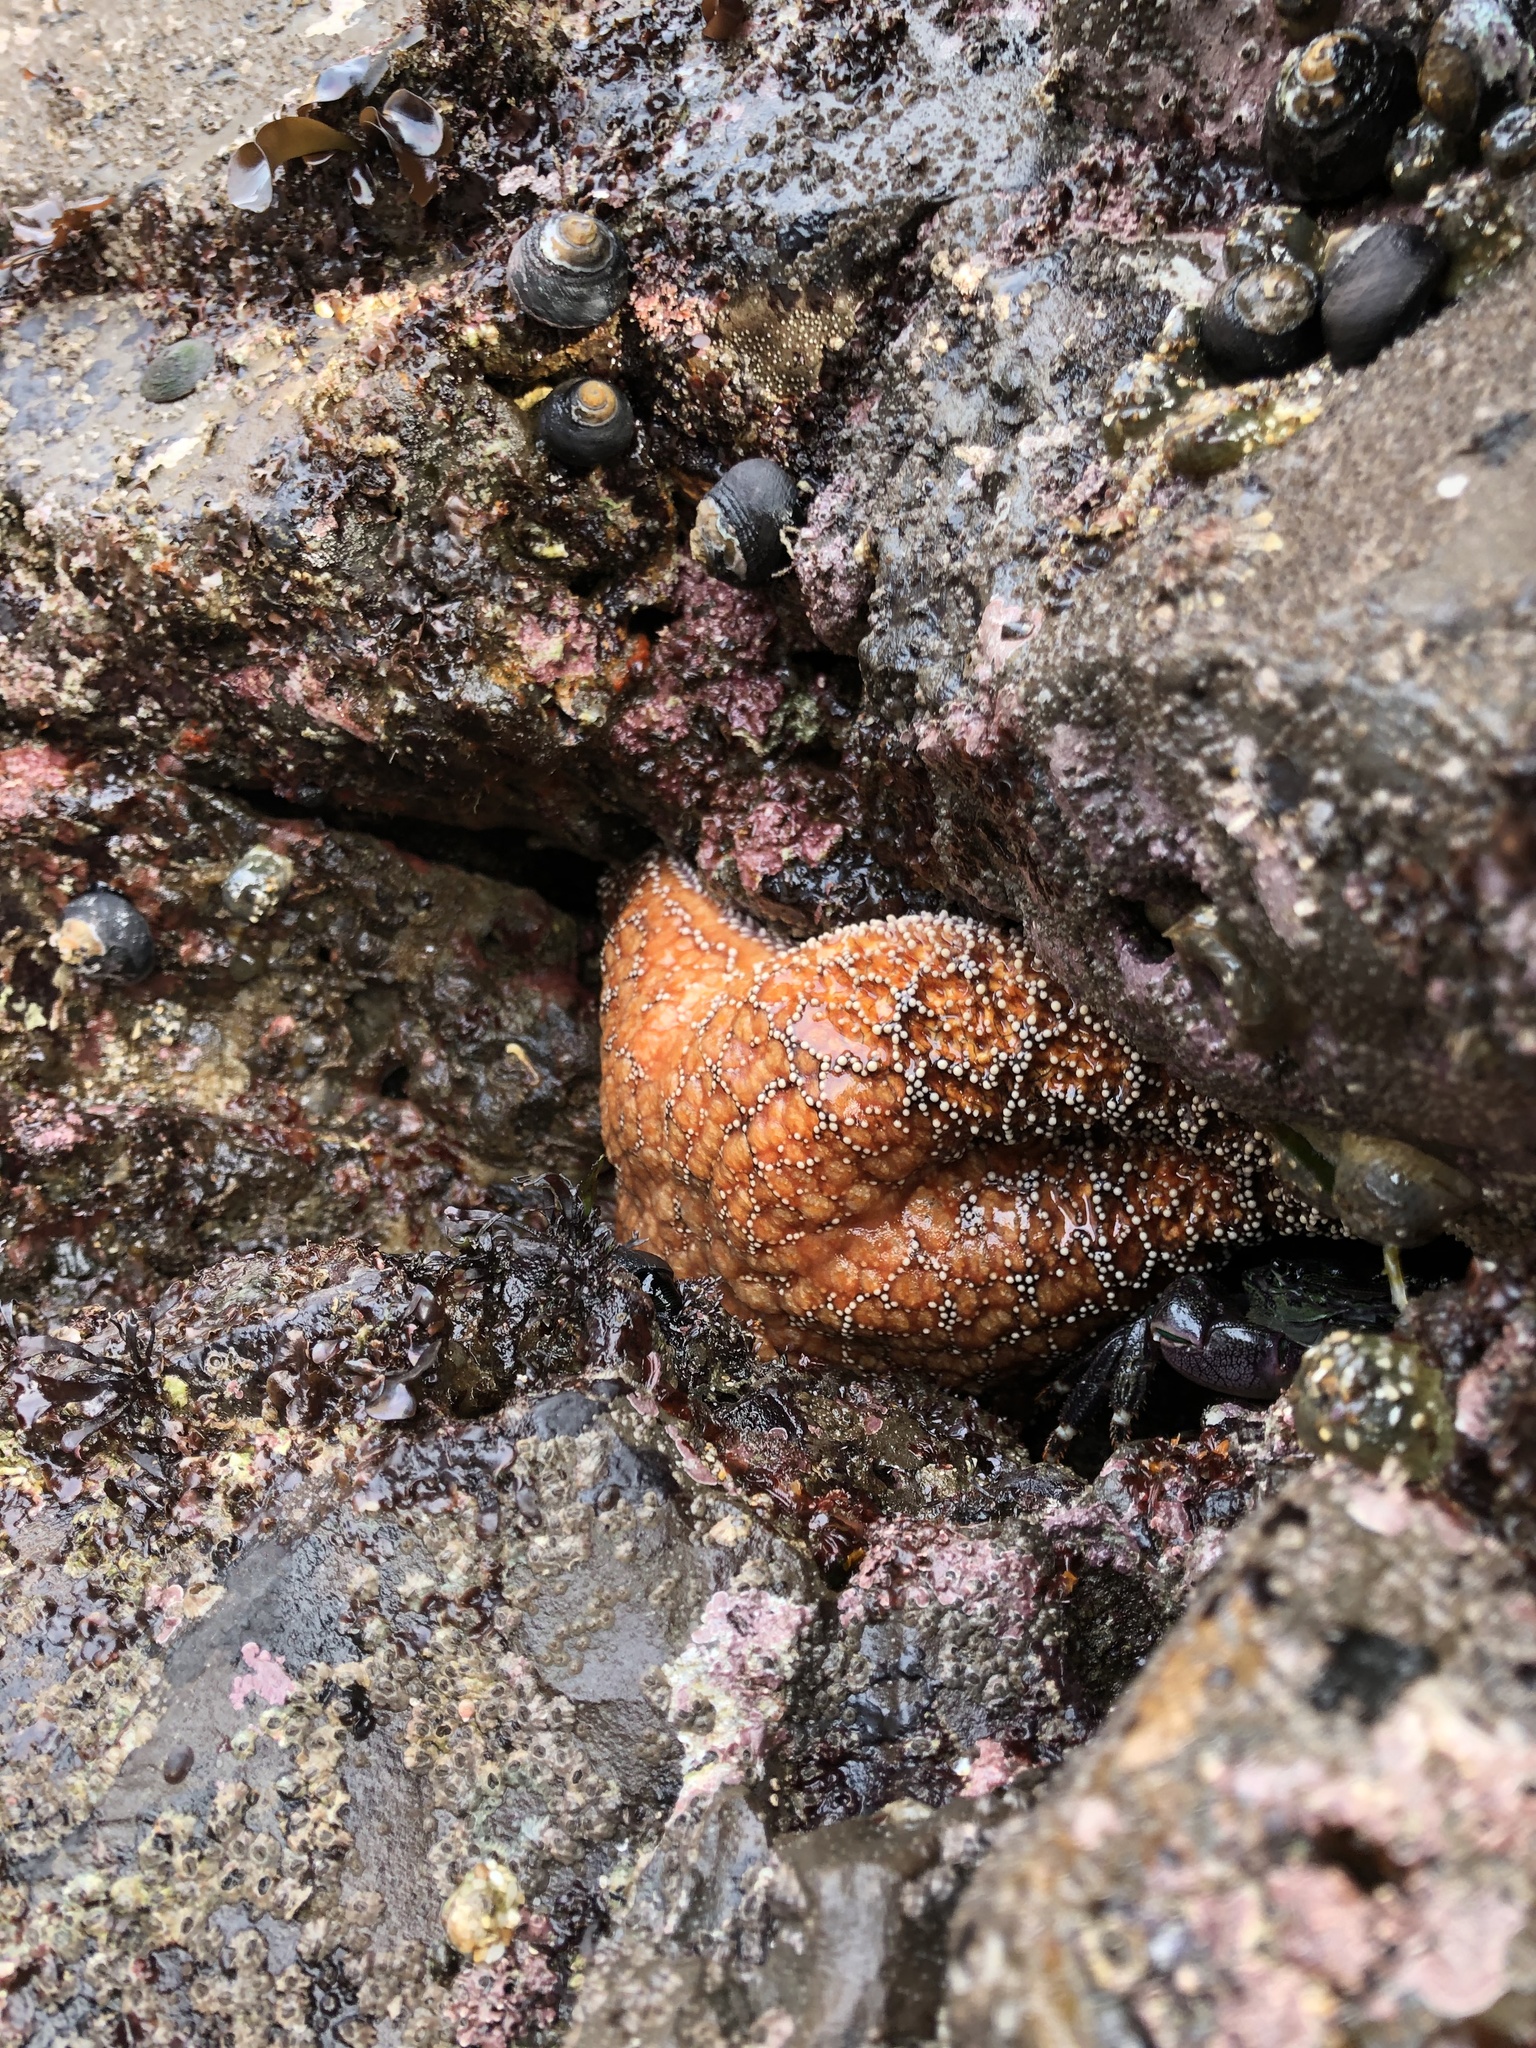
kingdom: Animalia
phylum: Echinodermata
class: Asteroidea
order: Forcipulatida
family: Asteriidae
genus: Pisaster
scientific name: Pisaster ochraceus
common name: Ochre stars
